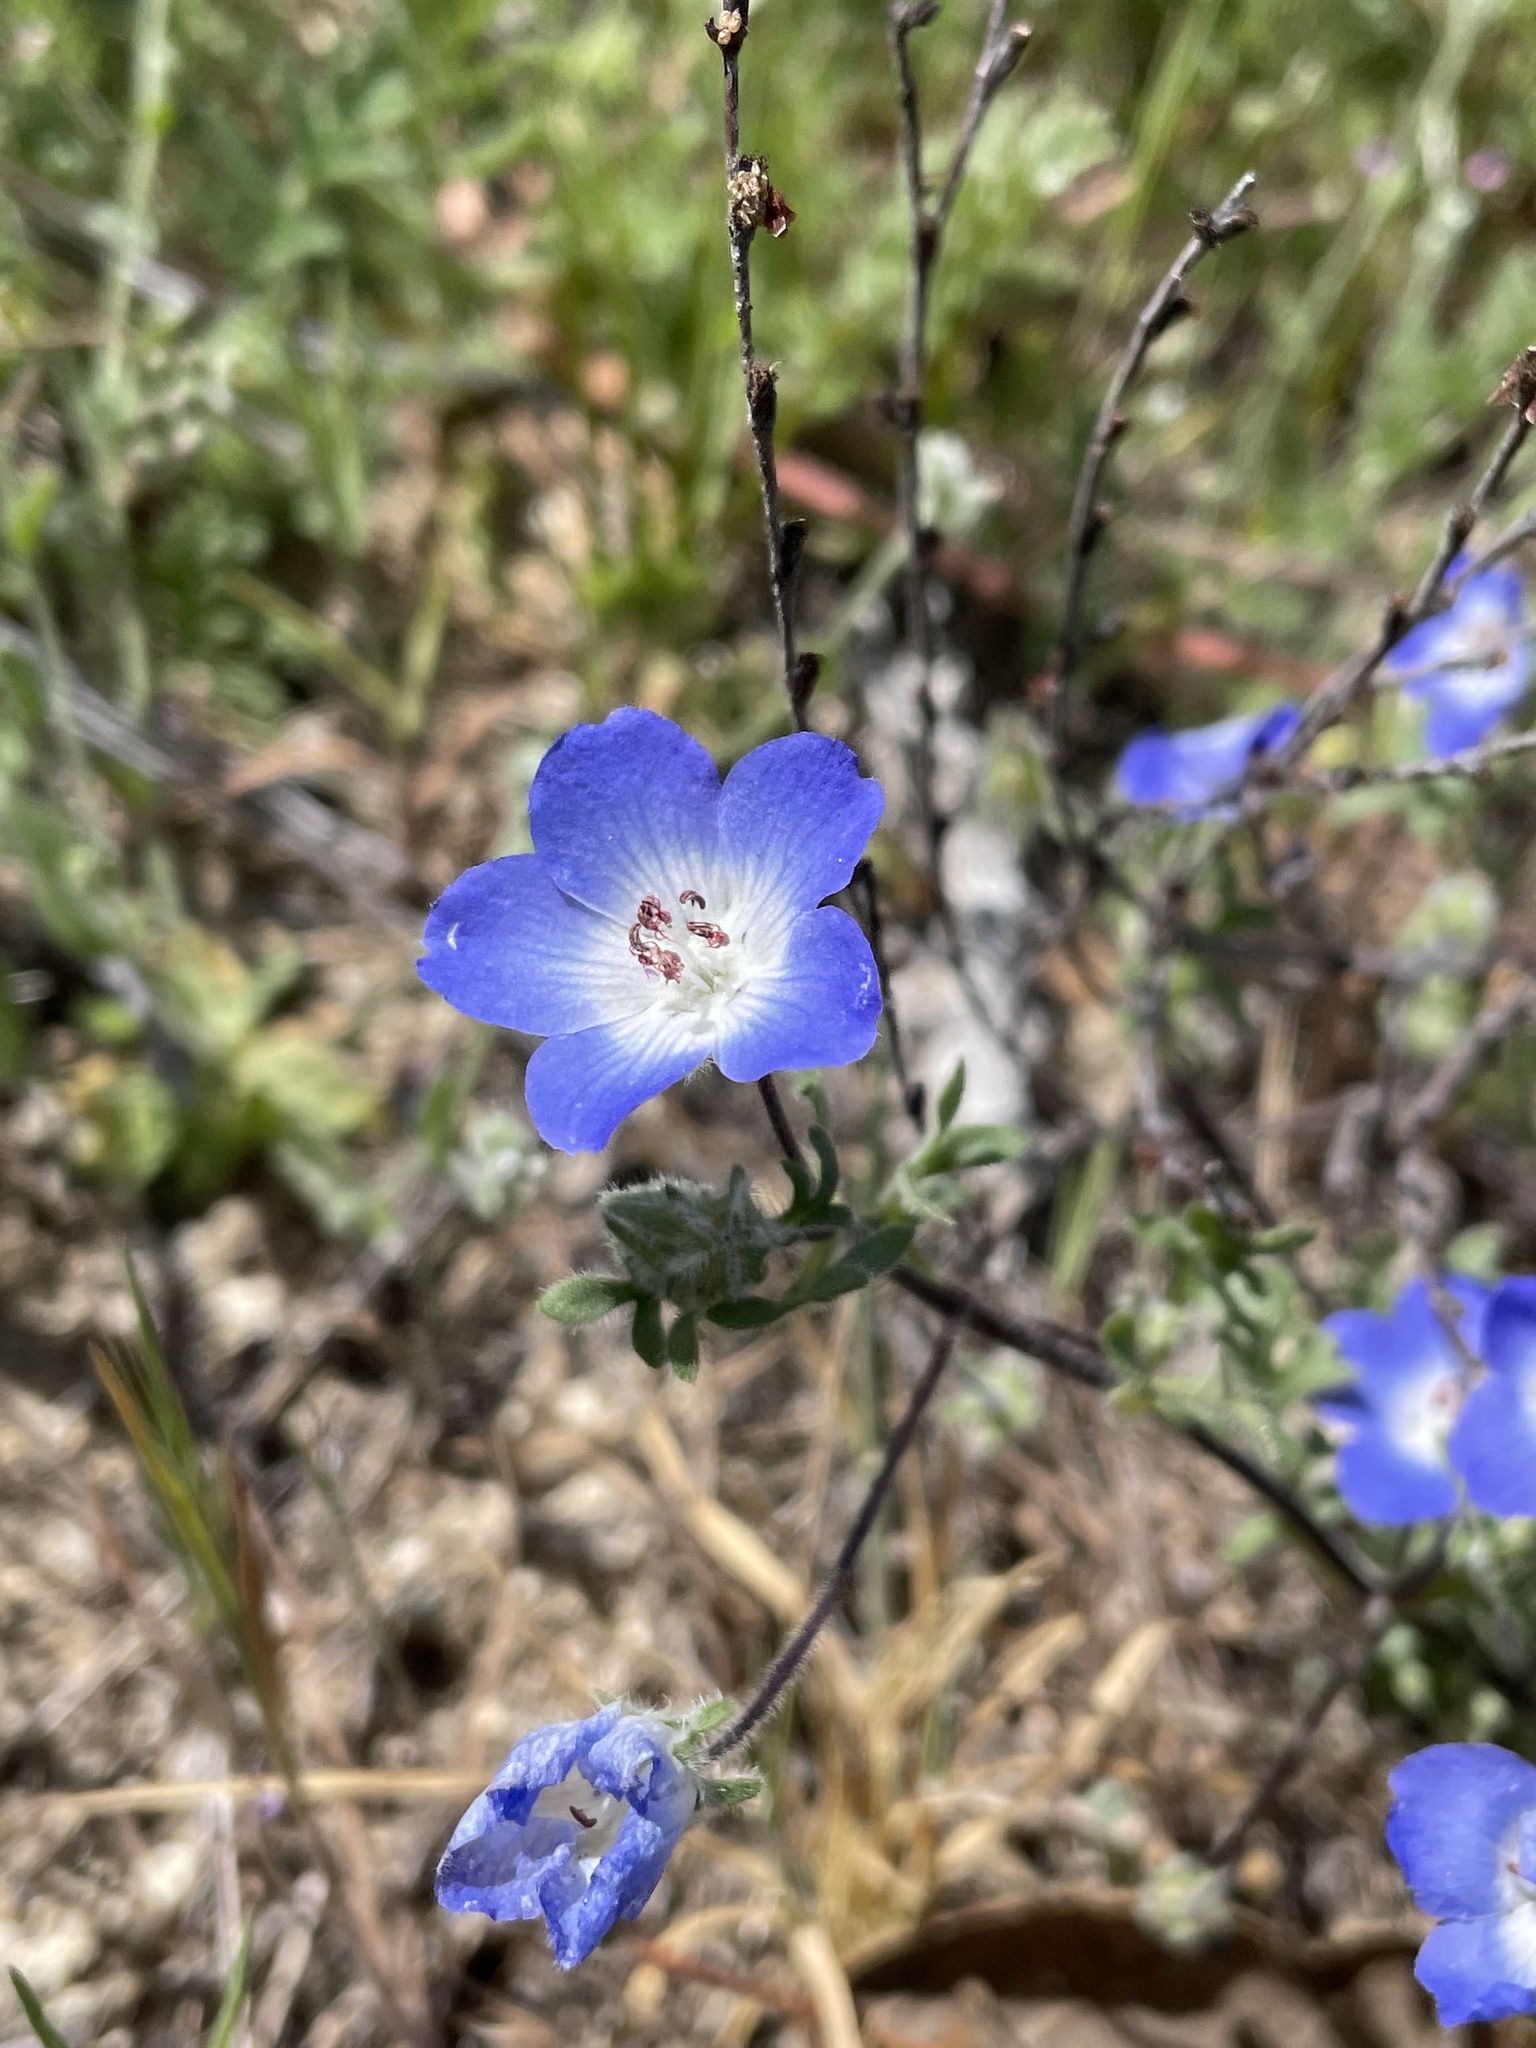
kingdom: Plantae
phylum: Tracheophyta
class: Magnoliopsida
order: Boraginales
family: Hydrophyllaceae
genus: Nemophila
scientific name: Nemophila menziesii
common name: Baby's-blue-eyes
